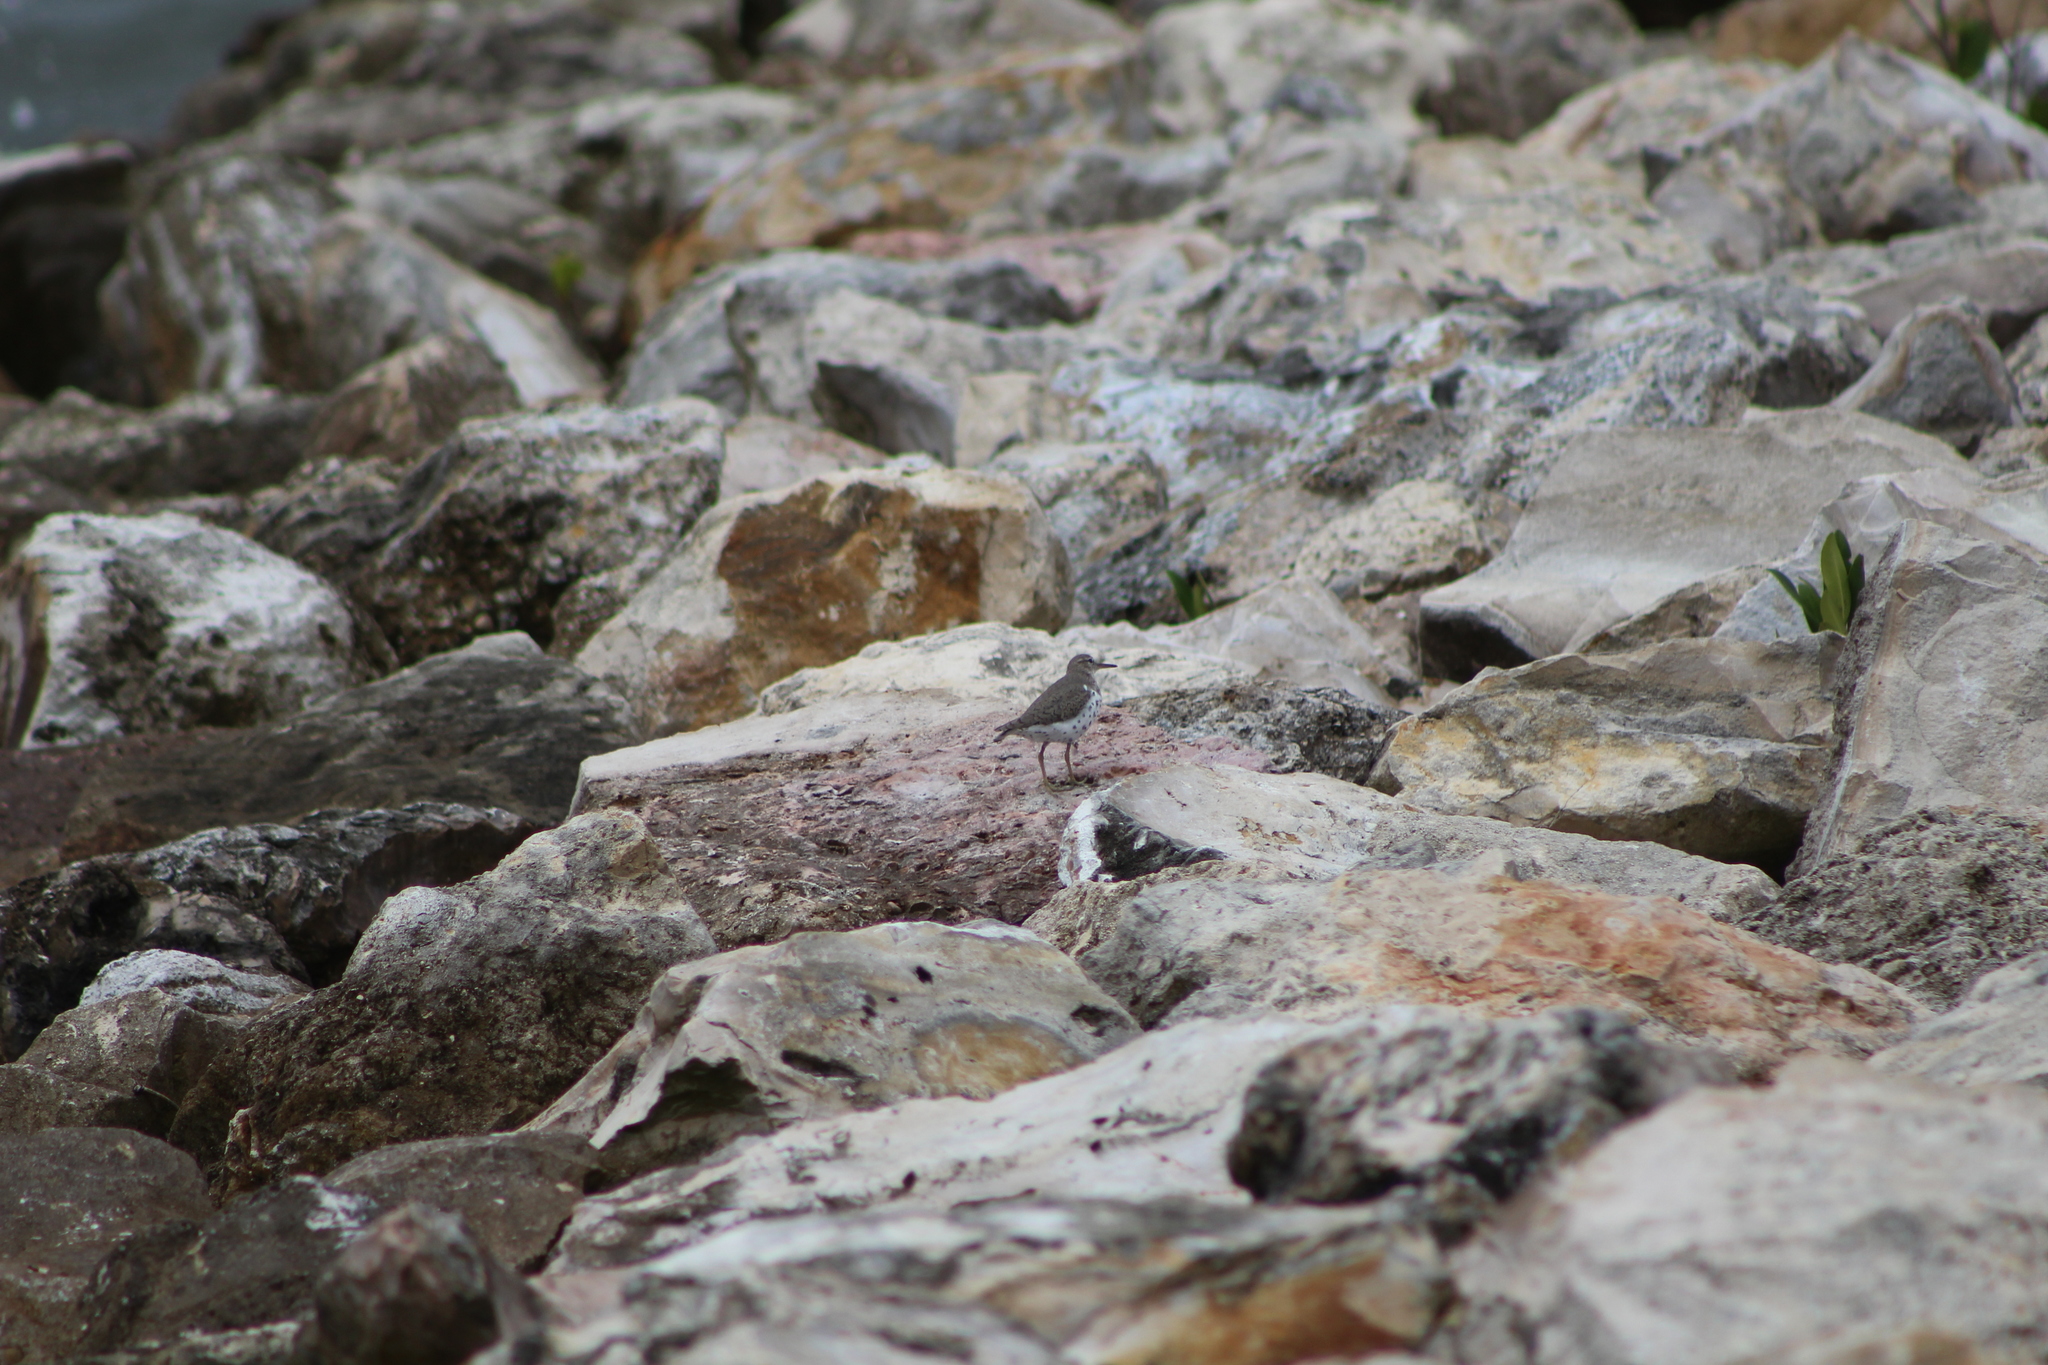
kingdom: Animalia
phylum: Chordata
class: Aves
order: Charadriiformes
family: Scolopacidae
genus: Actitis
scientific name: Actitis macularius
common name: Spotted sandpiper
